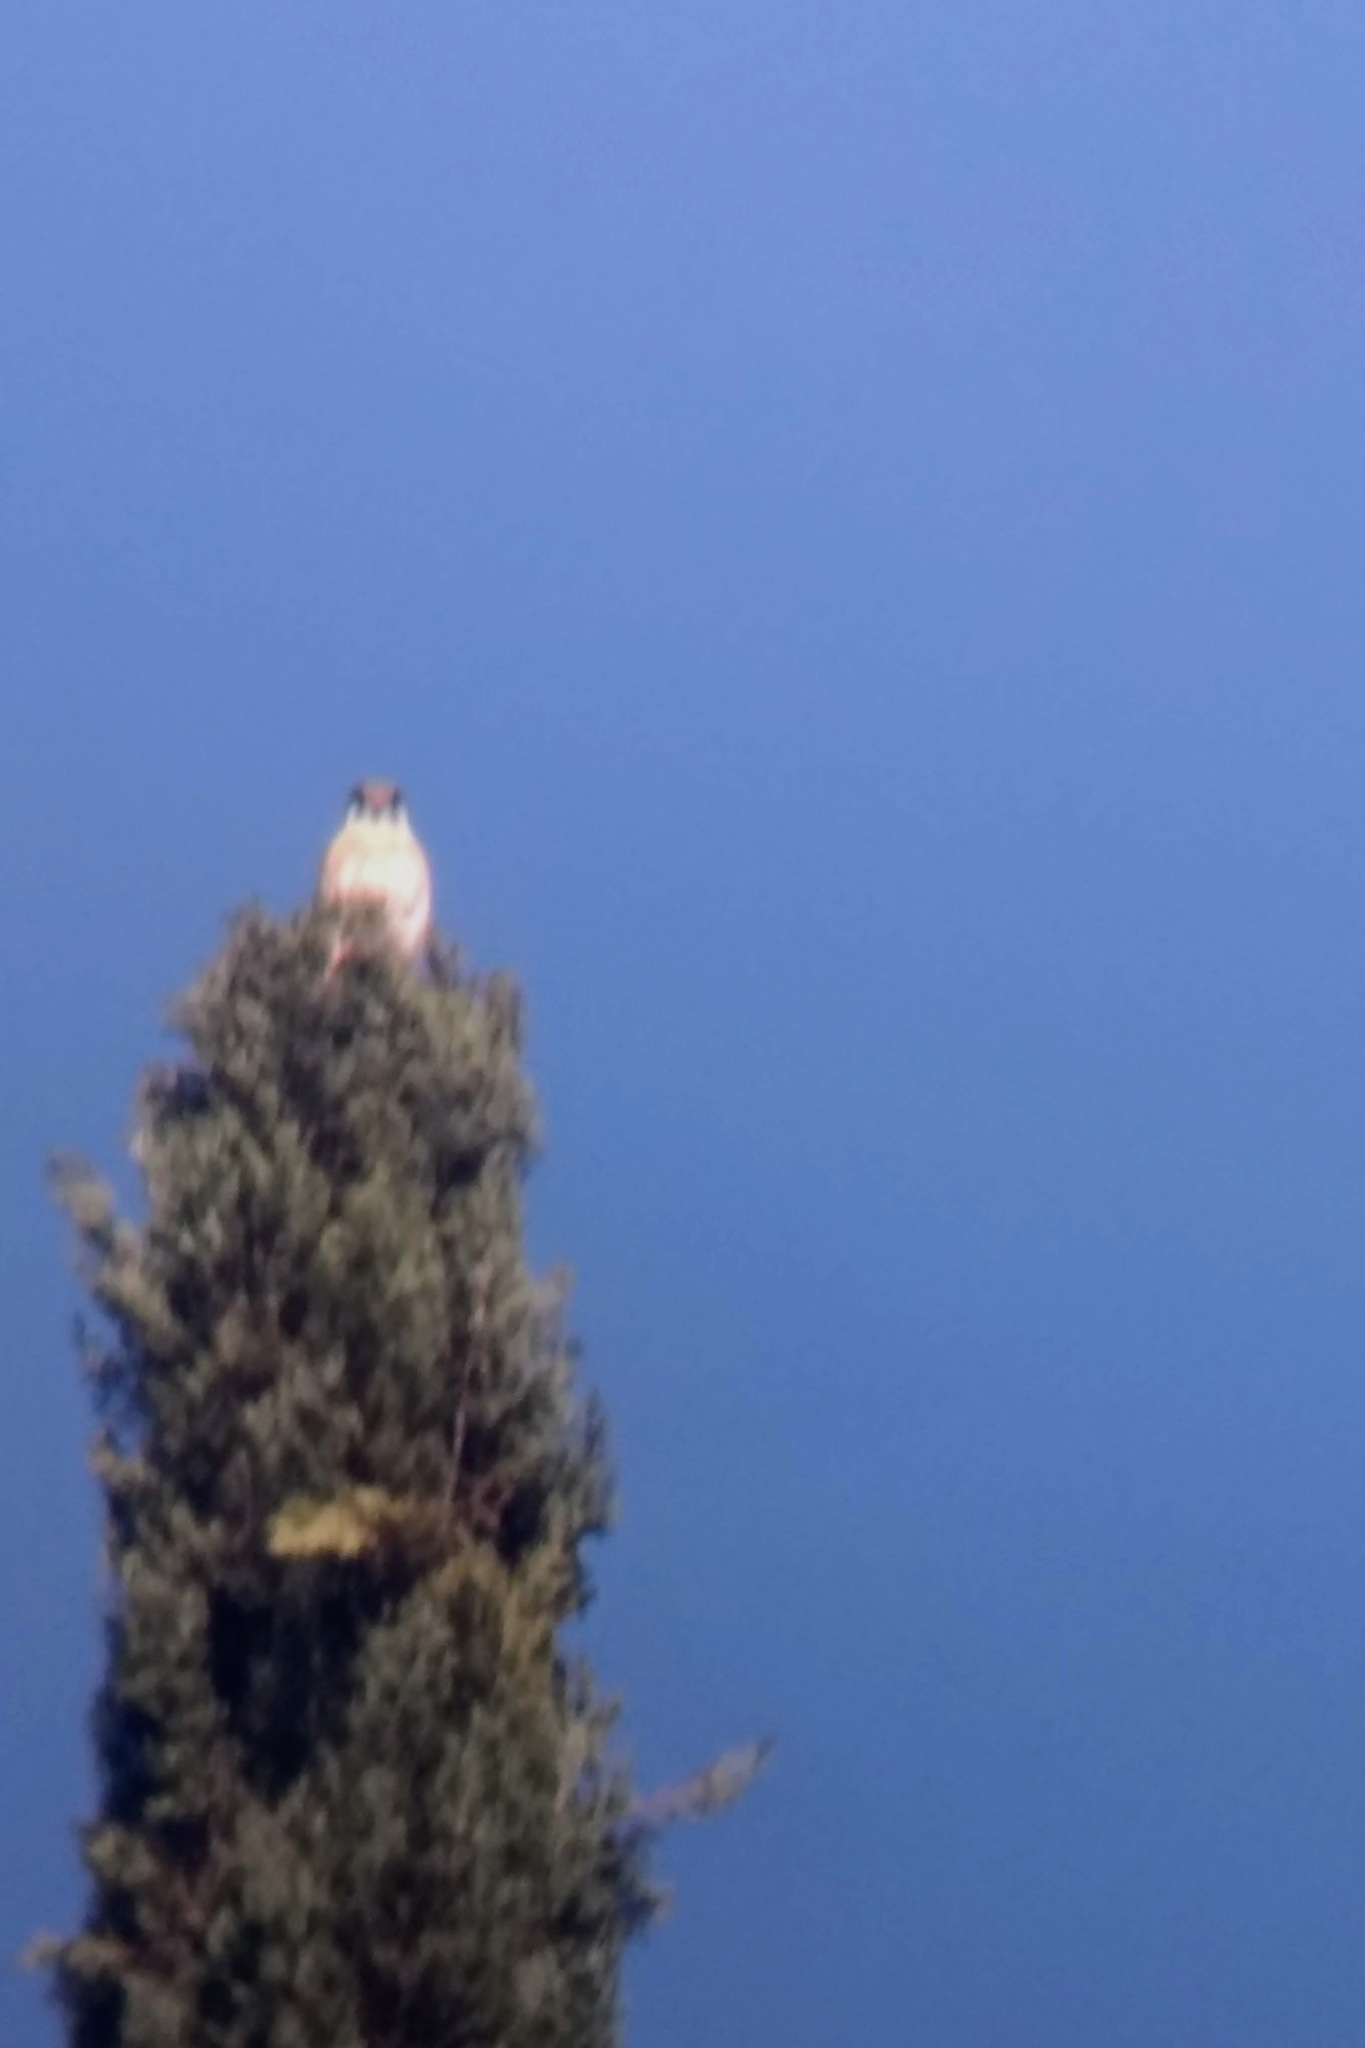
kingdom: Animalia
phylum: Chordata
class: Aves
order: Falconiformes
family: Falconidae
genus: Falco
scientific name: Falco sparverius
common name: American kestrel
